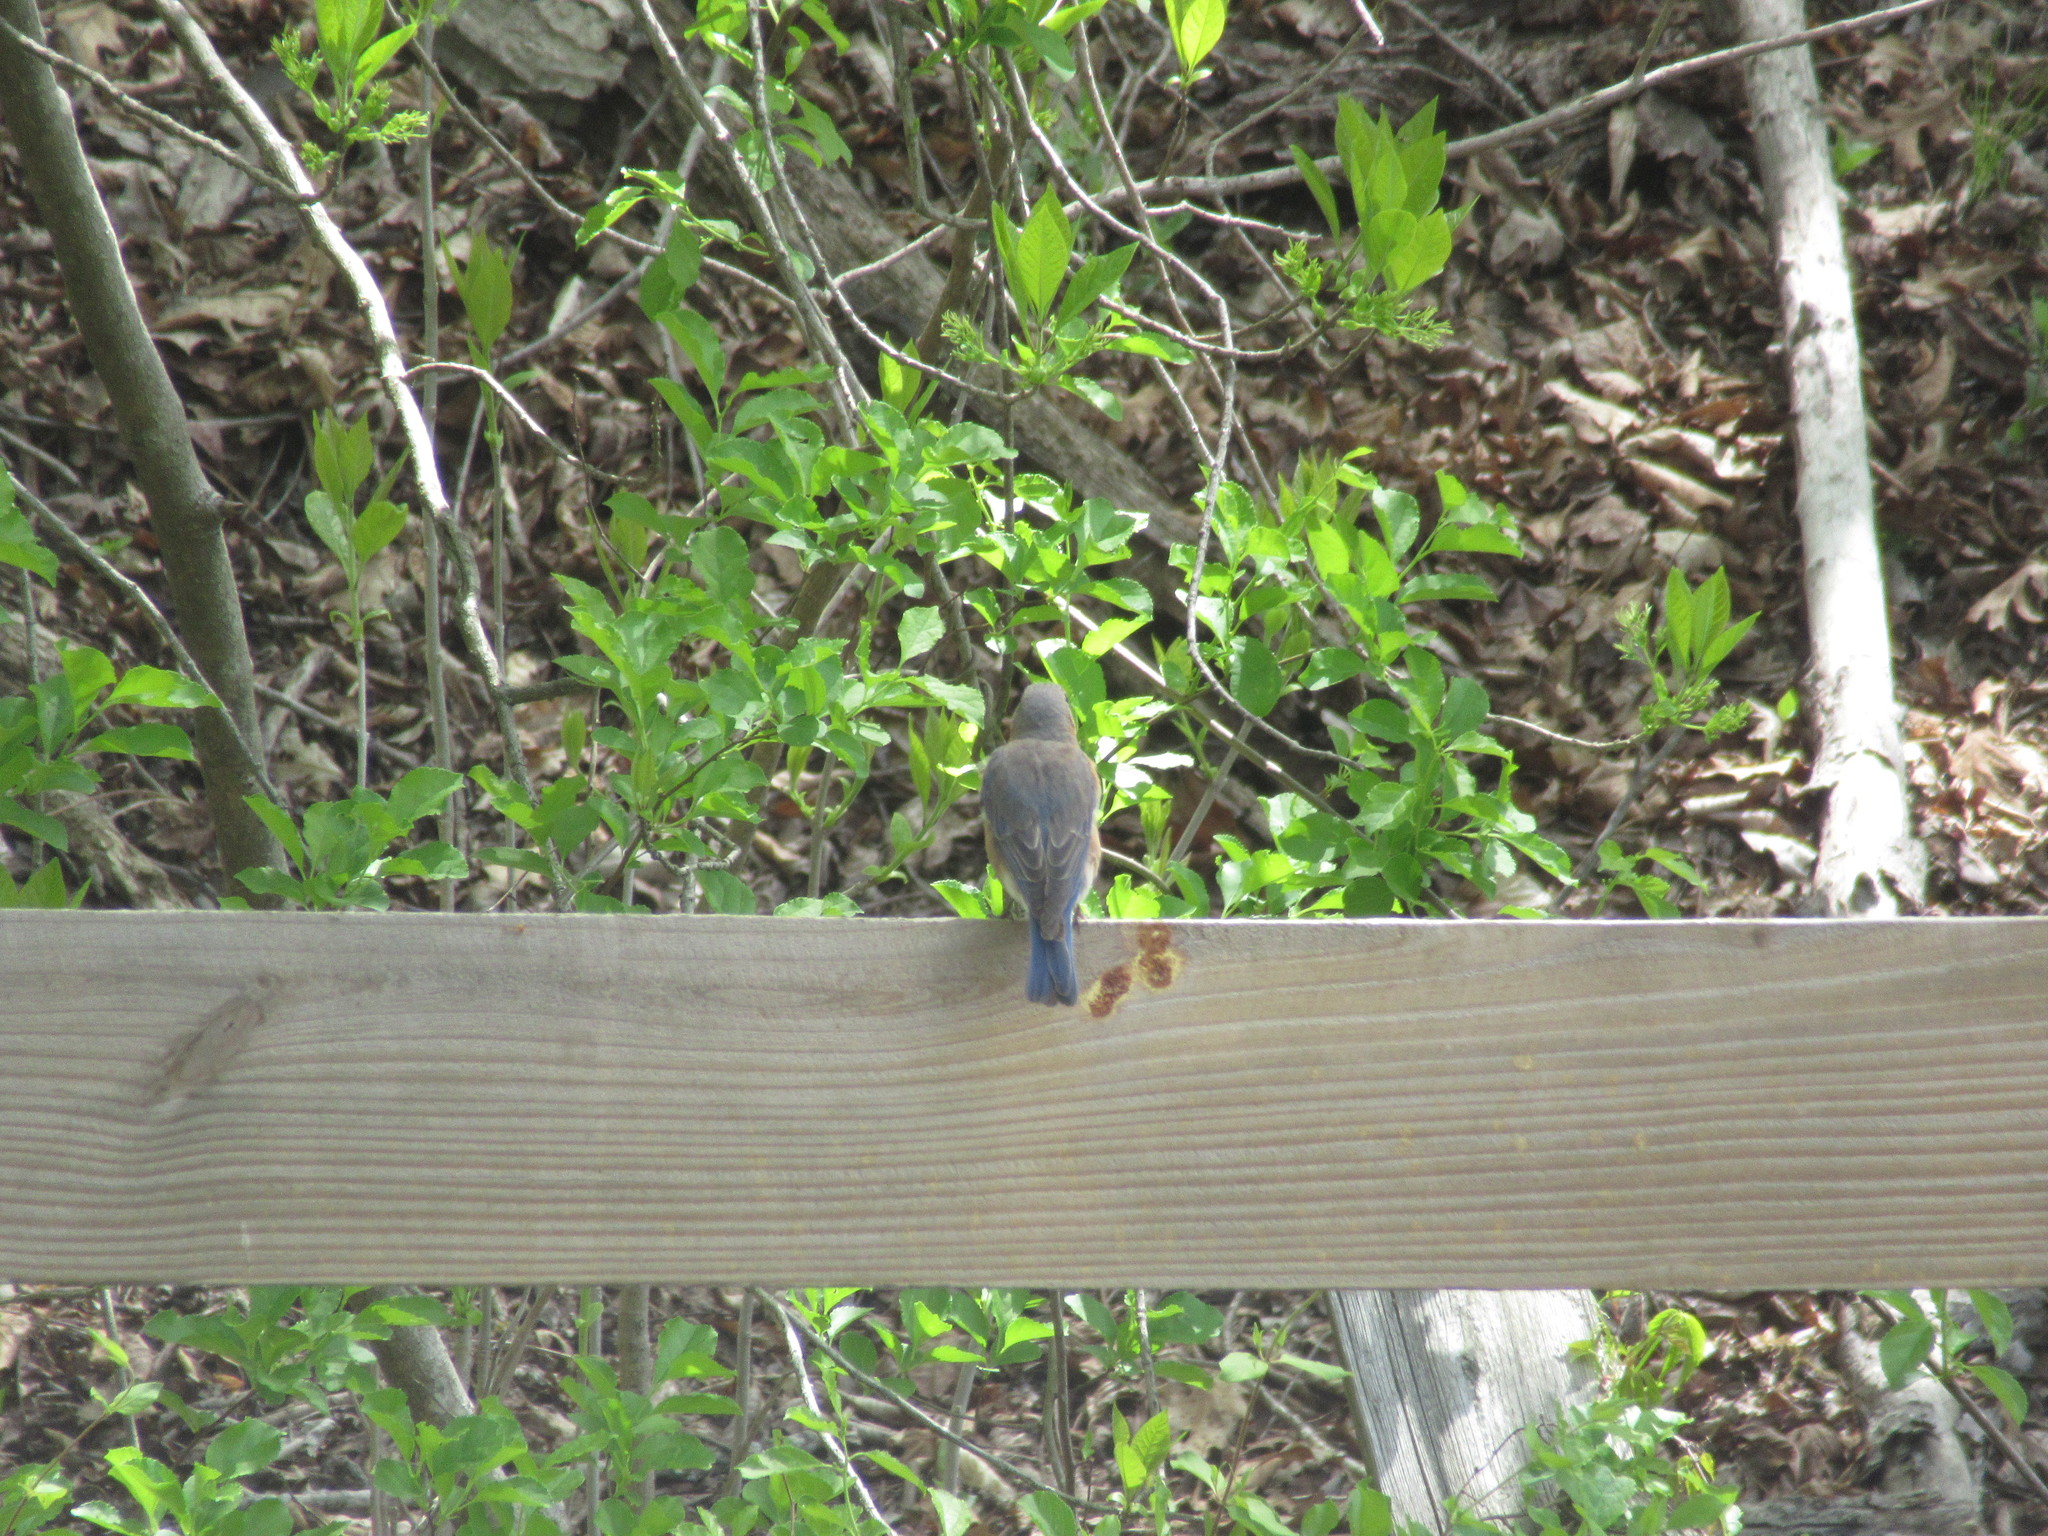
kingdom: Animalia
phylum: Chordata
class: Aves
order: Passeriformes
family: Turdidae
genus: Sialia
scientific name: Sialia sialis
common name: Eastern bluebird
